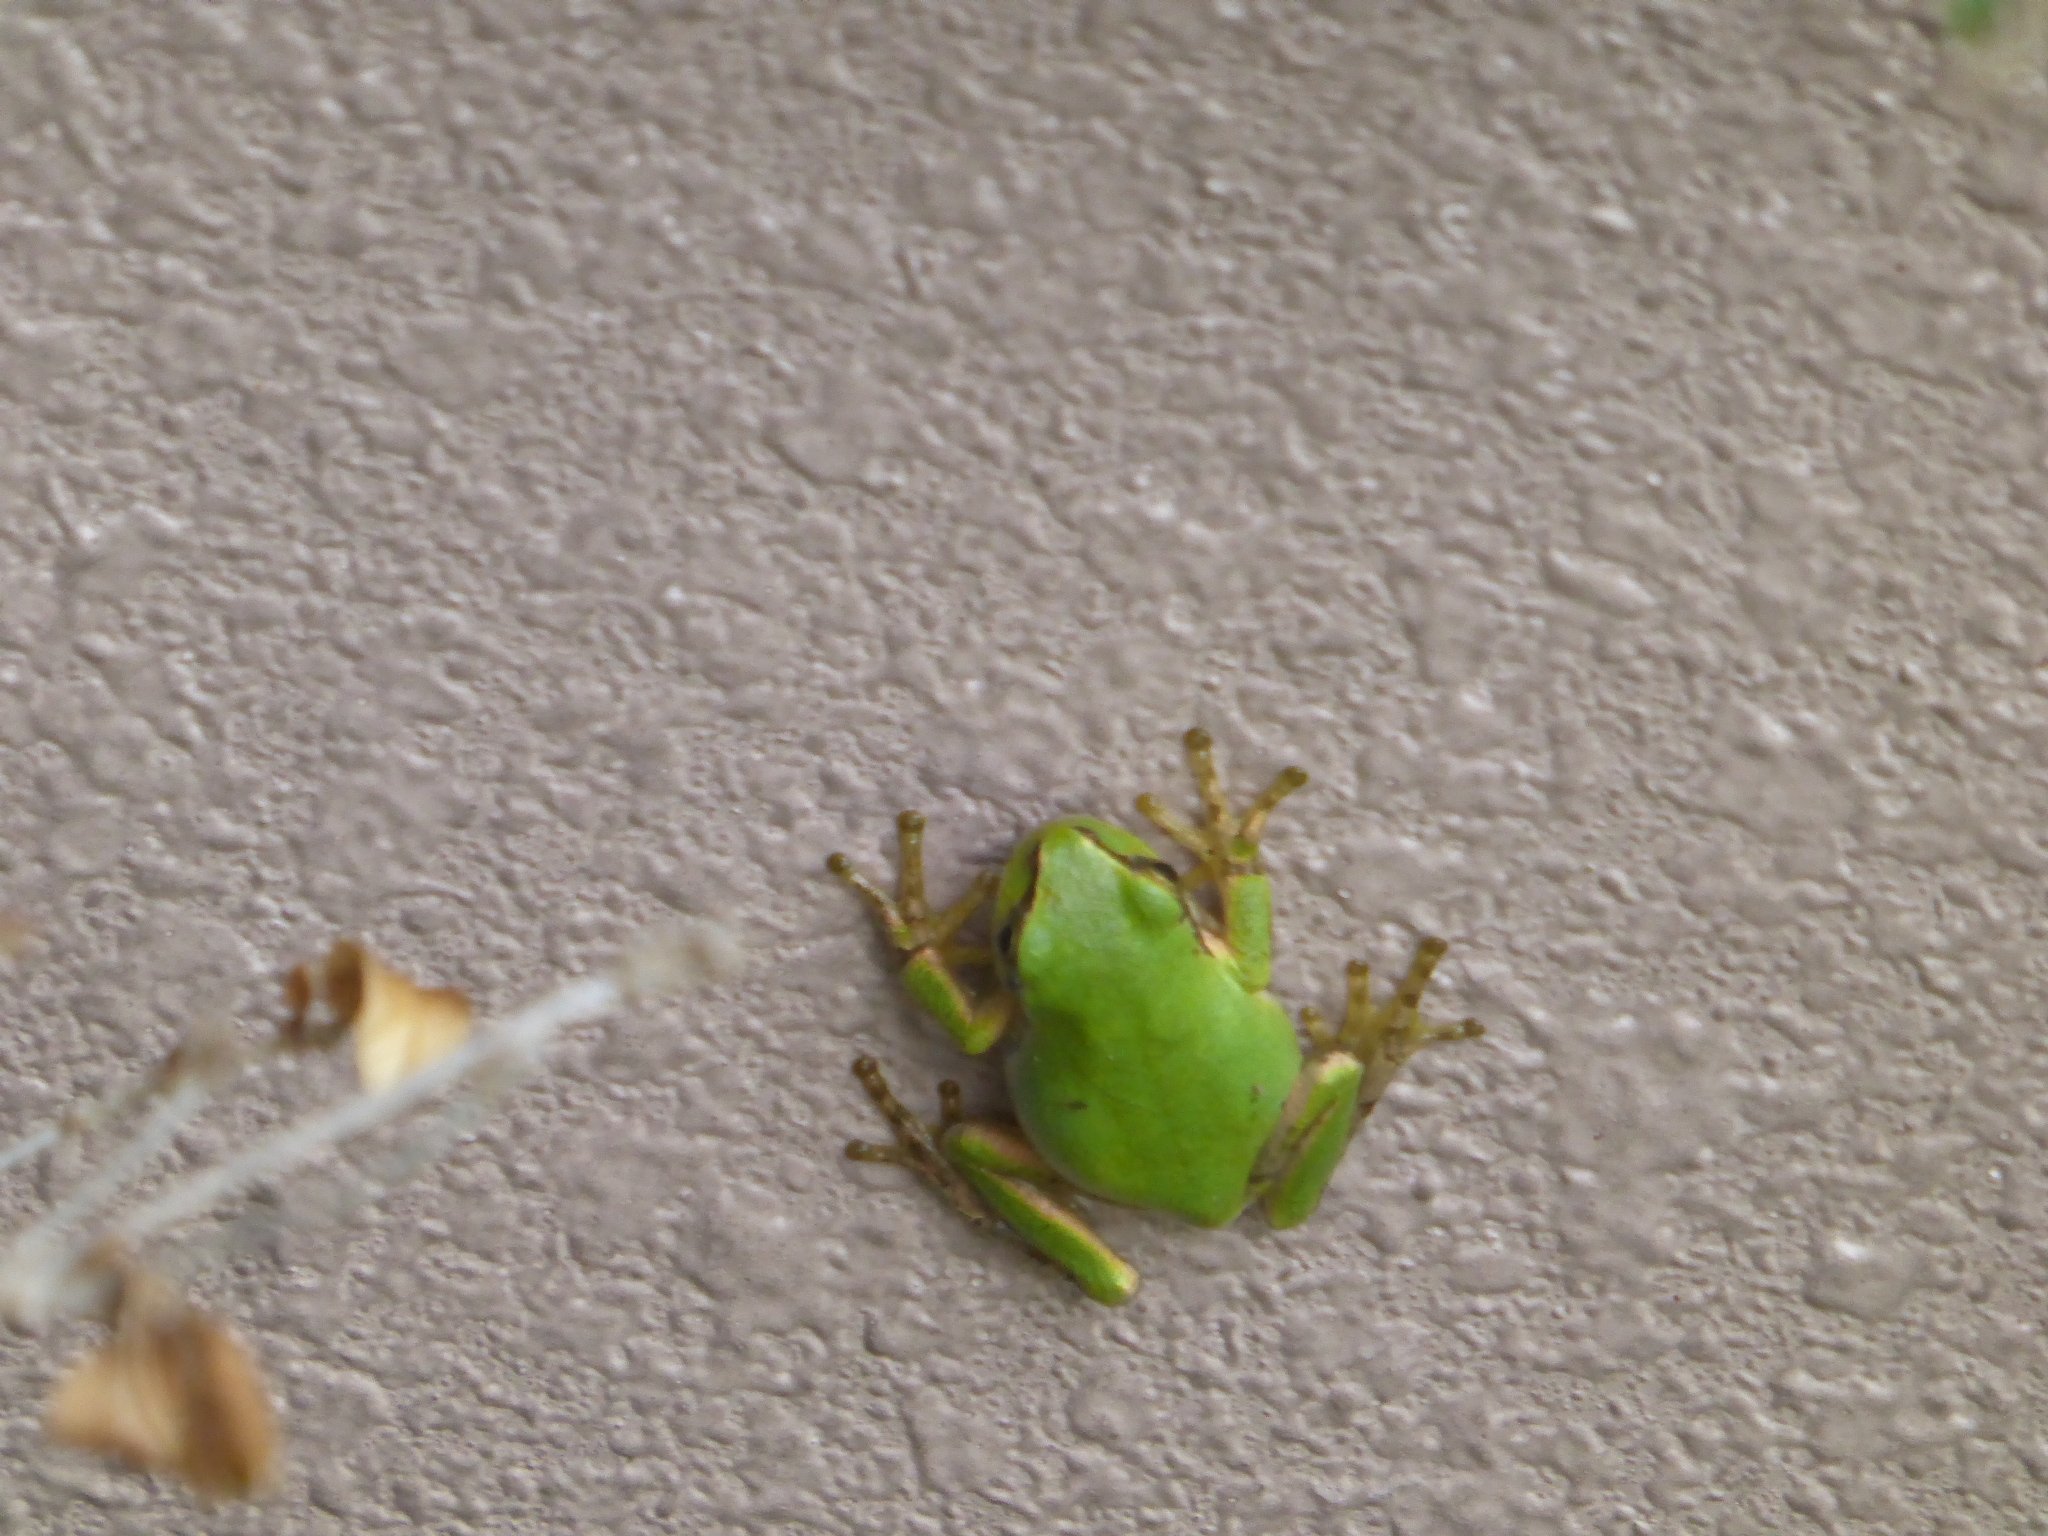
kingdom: Animalia
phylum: Chordata
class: Amphibia
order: Anura
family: Hylidae
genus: Dryophytes
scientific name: Dryophytes japonicus
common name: Japanese treefrog
